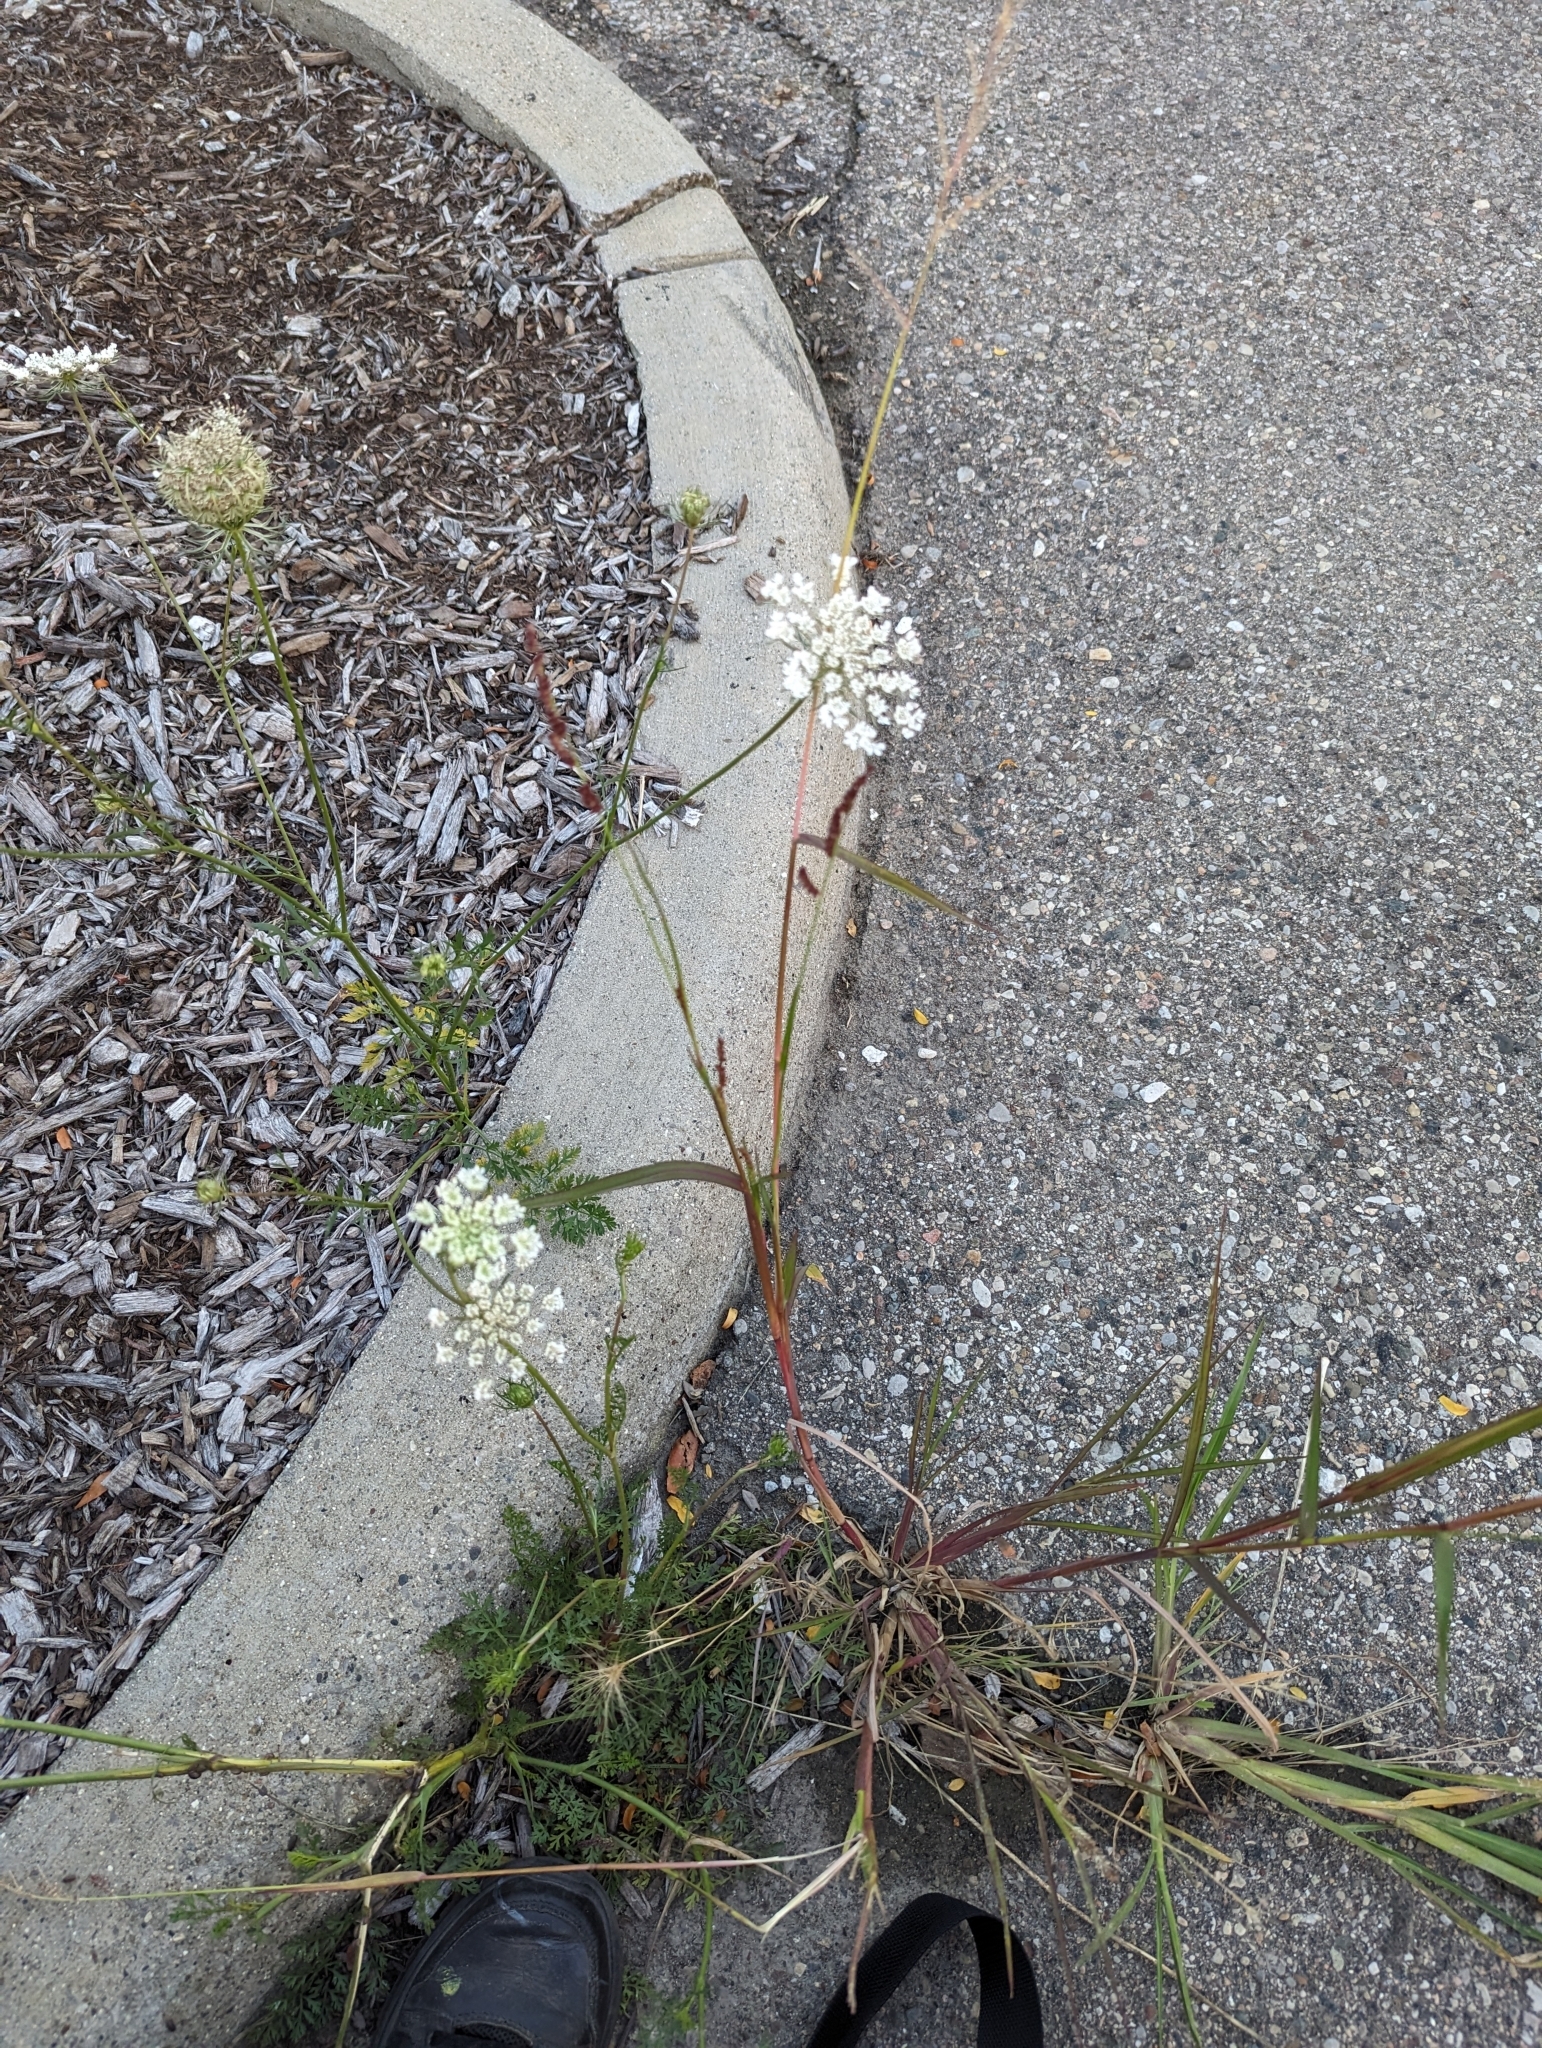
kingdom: Plantae
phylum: Tracheophyta
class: Magnoliopsida
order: Apiales
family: Apiaceae
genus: Daucus
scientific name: Daucus carota
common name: Wild carrot
